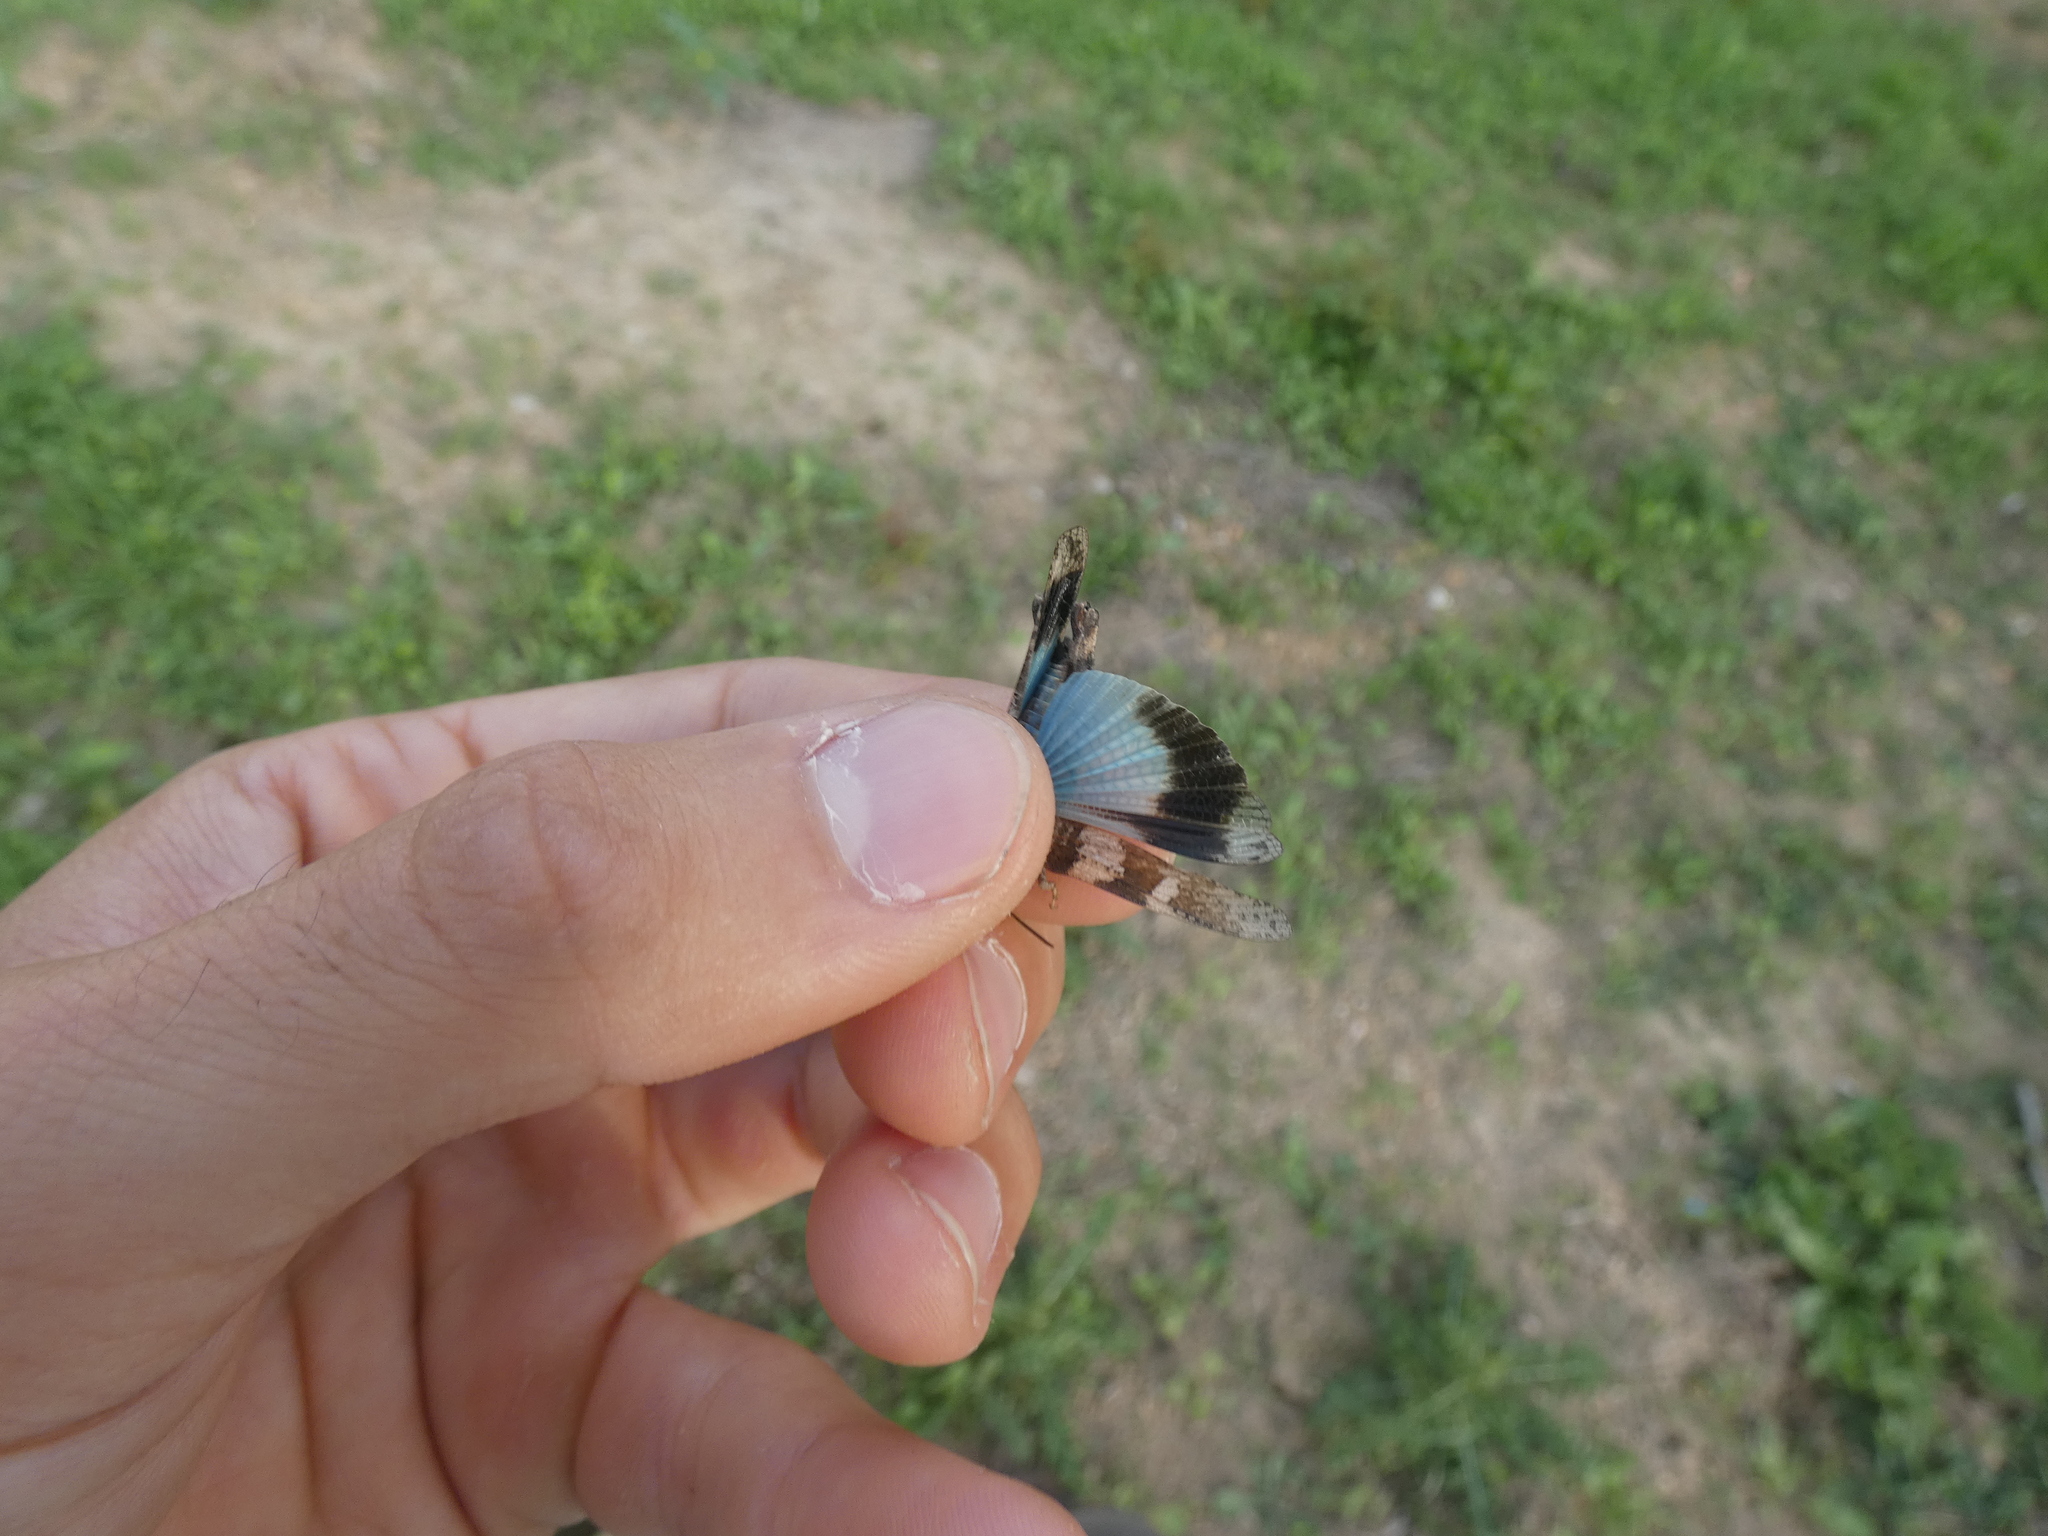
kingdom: Animalia
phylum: Arthropoda
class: Insecta
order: Orthoptera
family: Acrididae
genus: Oedipoda
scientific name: Oedipoda caerulescens
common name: Blue-winged grasshopper
